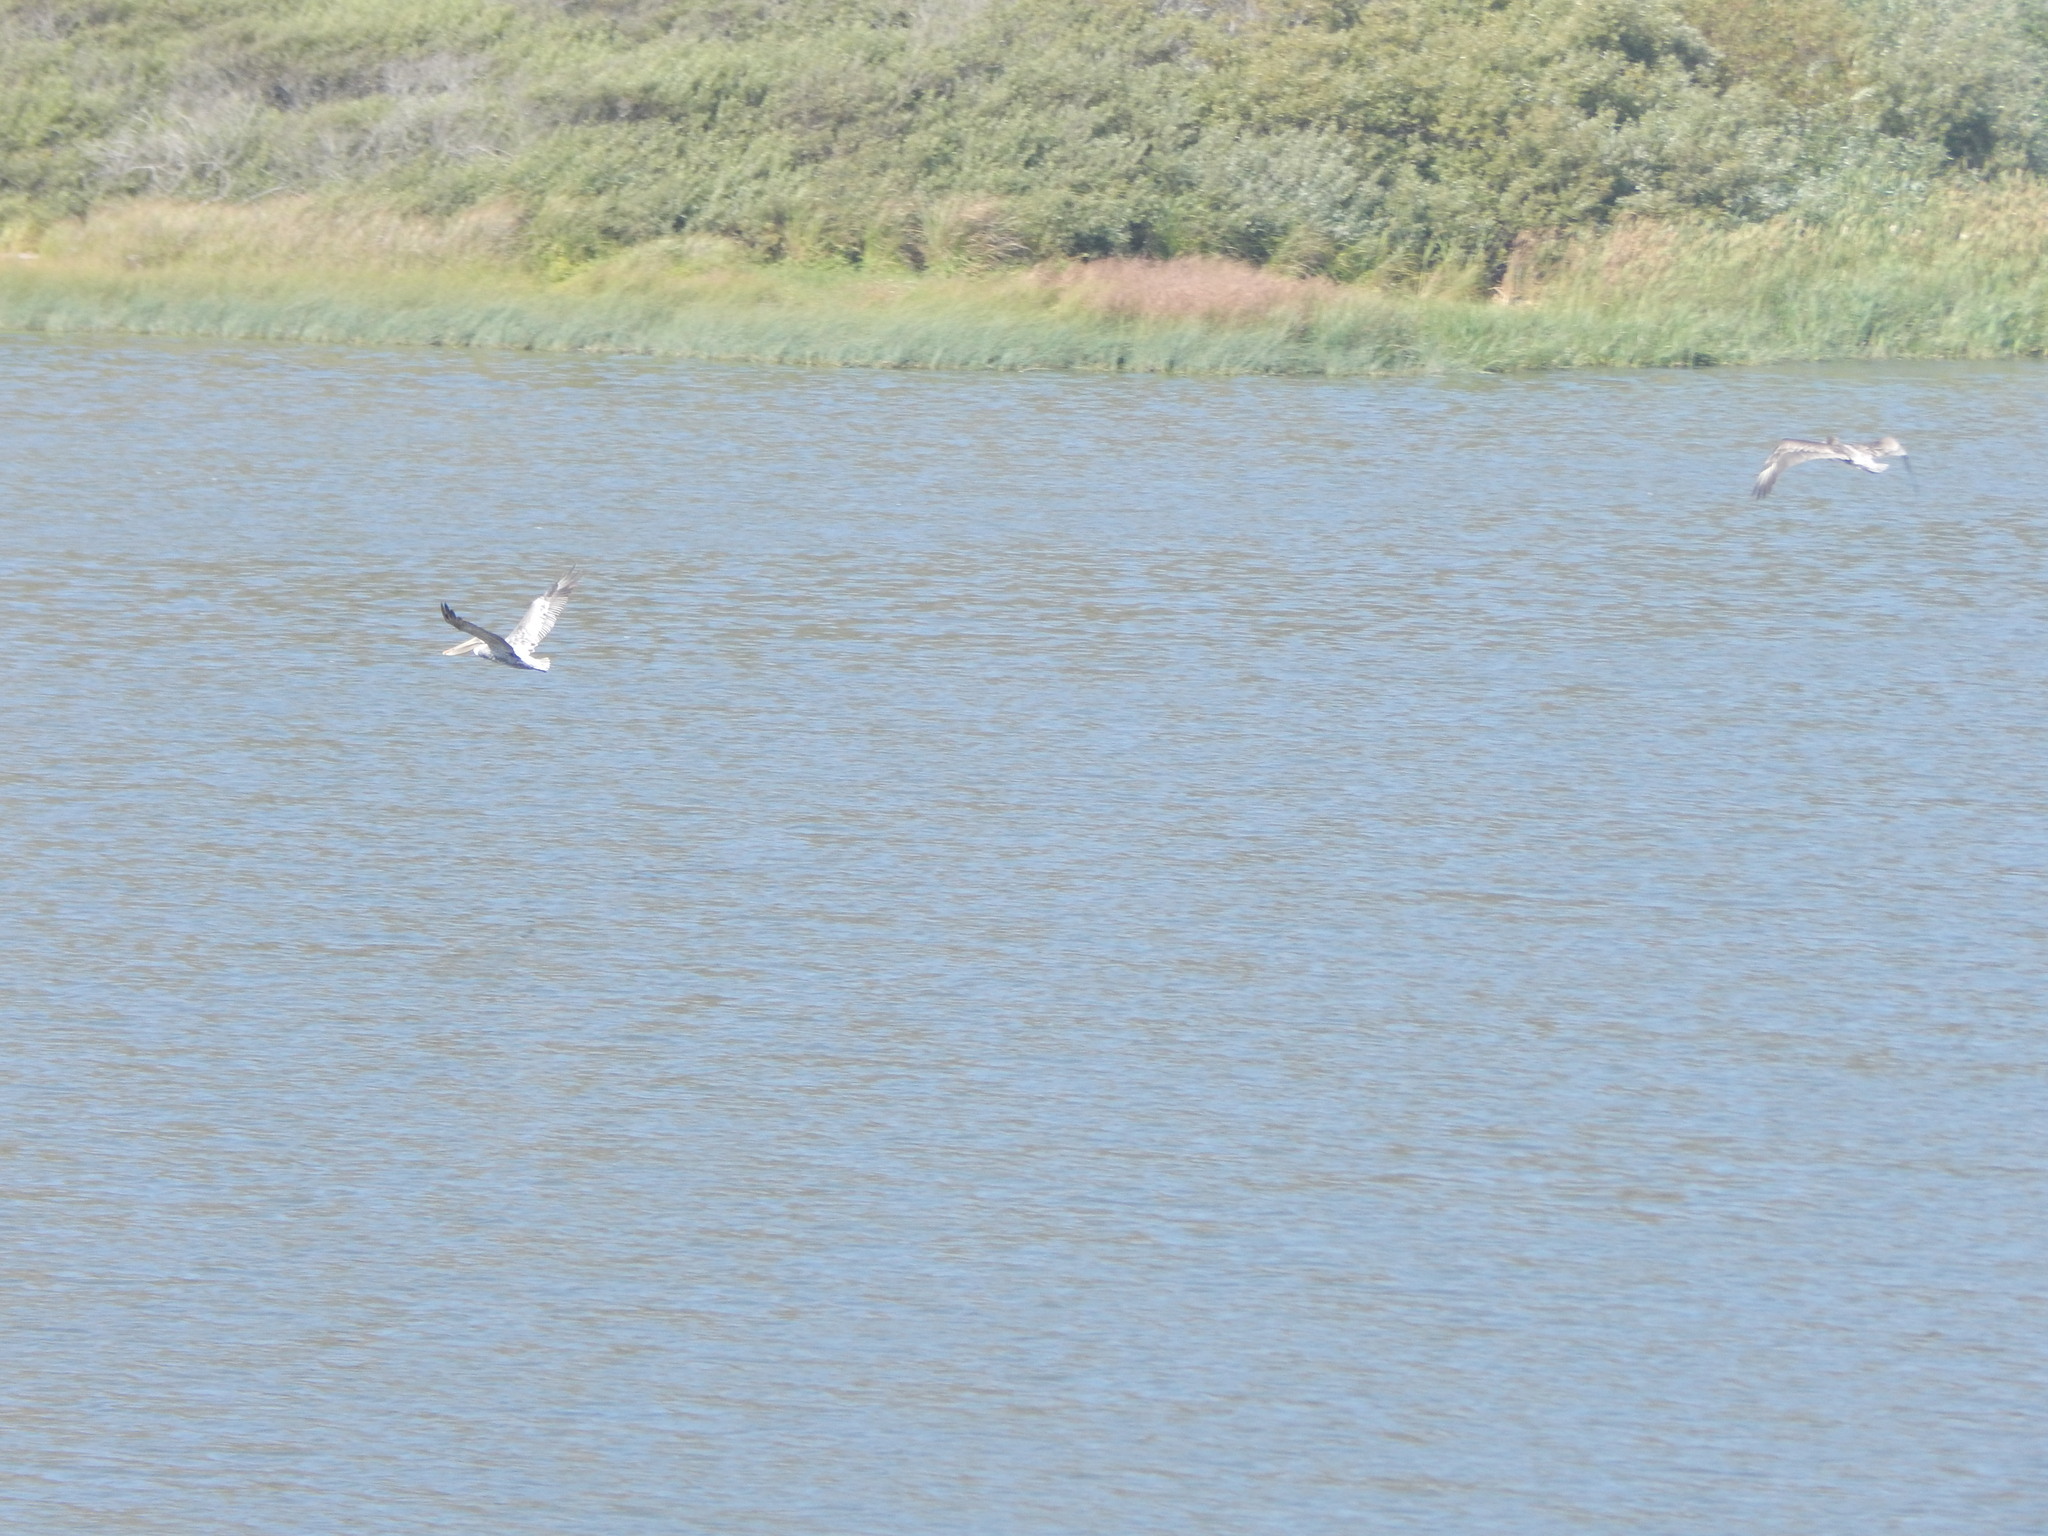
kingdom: Animalia
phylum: Chordata
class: Aves
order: Pelecaniformes
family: Pelecanidae
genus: Pelecanus
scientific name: Pelecanus occidentalis
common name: Brown pelican
